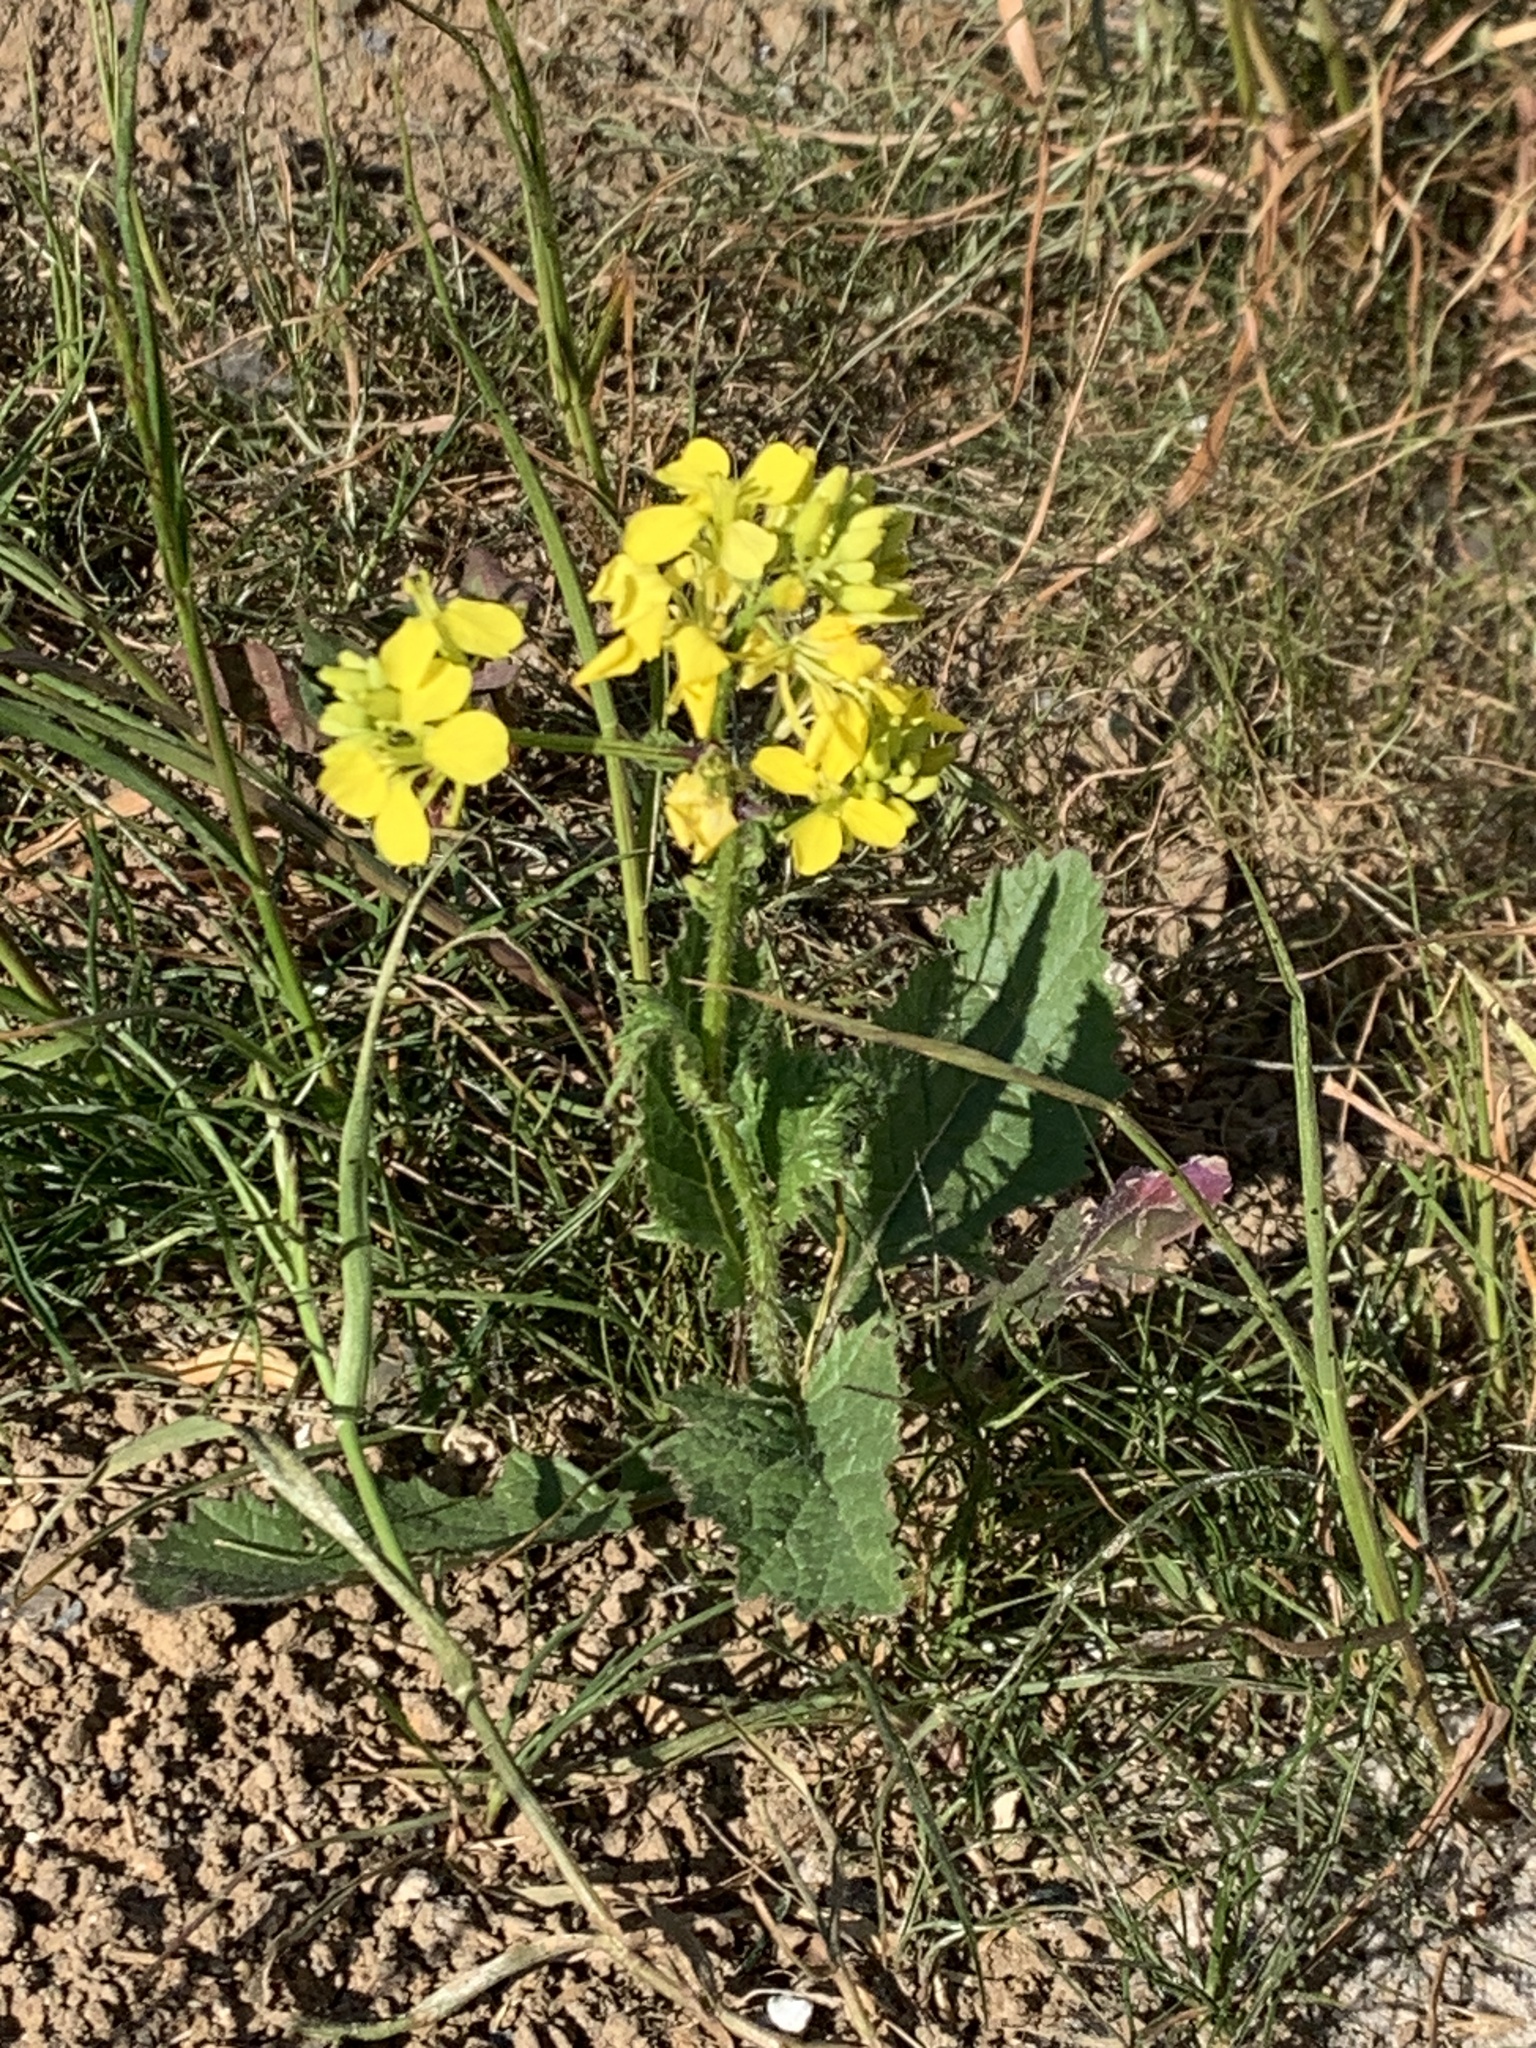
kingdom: Plantae
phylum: Tracheophyta
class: Magnoliopsida
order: Brassicales
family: Brassicaceae
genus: Sinapis
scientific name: Sinapis arvensis
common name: Charlock
